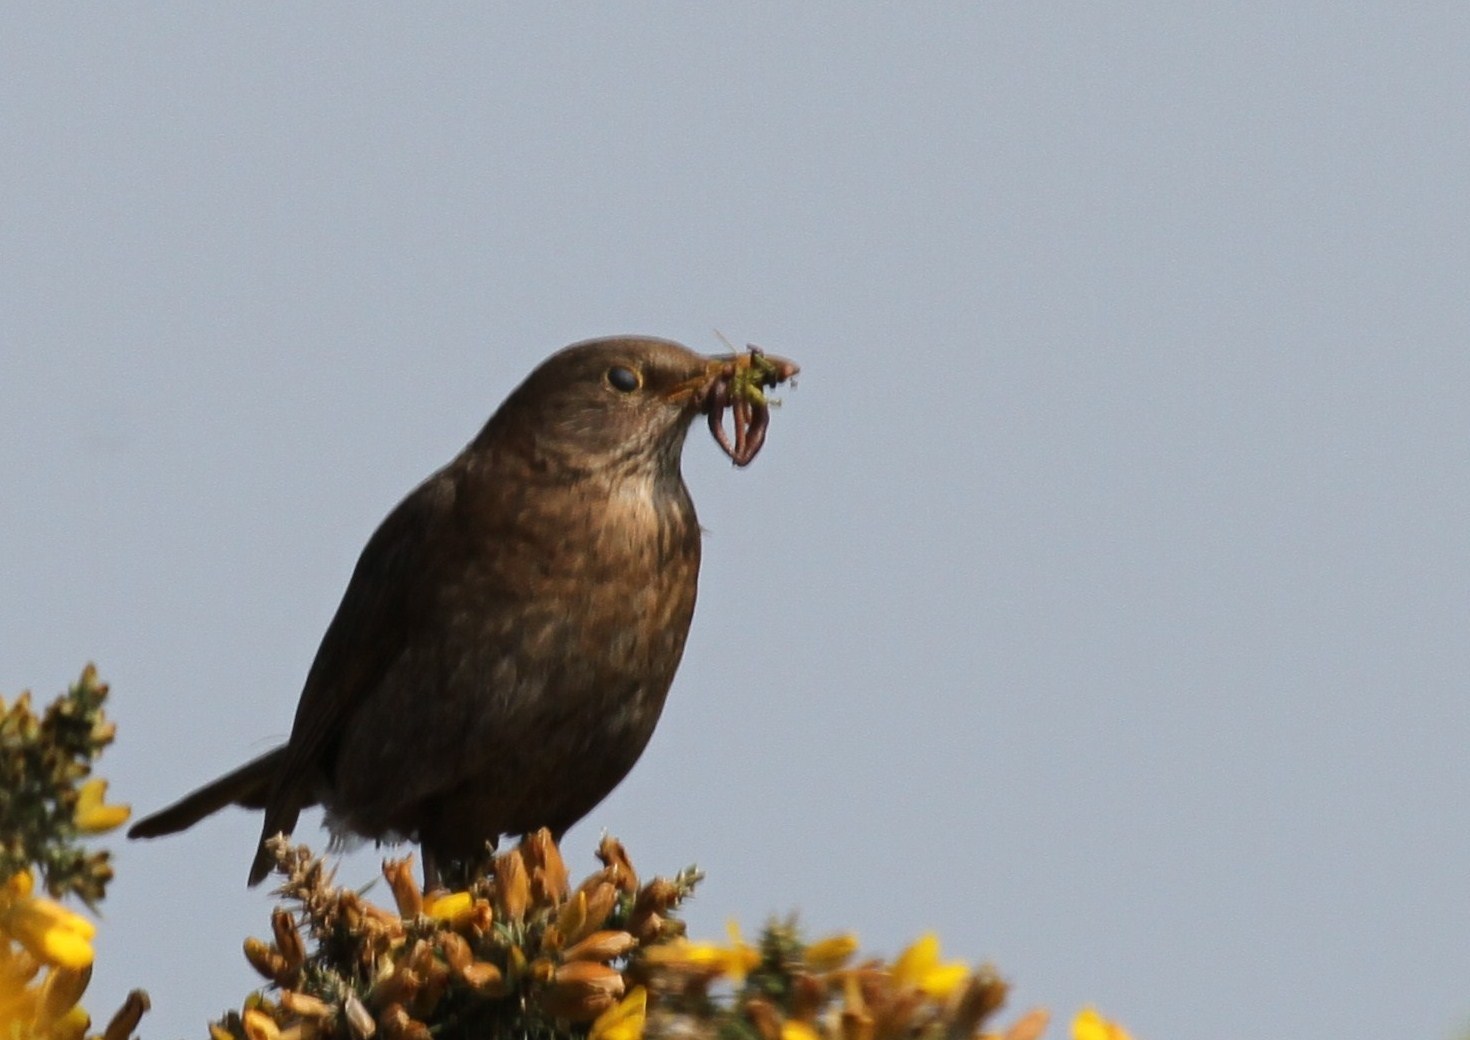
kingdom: Animalia
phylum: Chordata
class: Aves
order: Passeriformes
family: Turdidae
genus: Turdus
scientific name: Turdus merula
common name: Common blackbird
